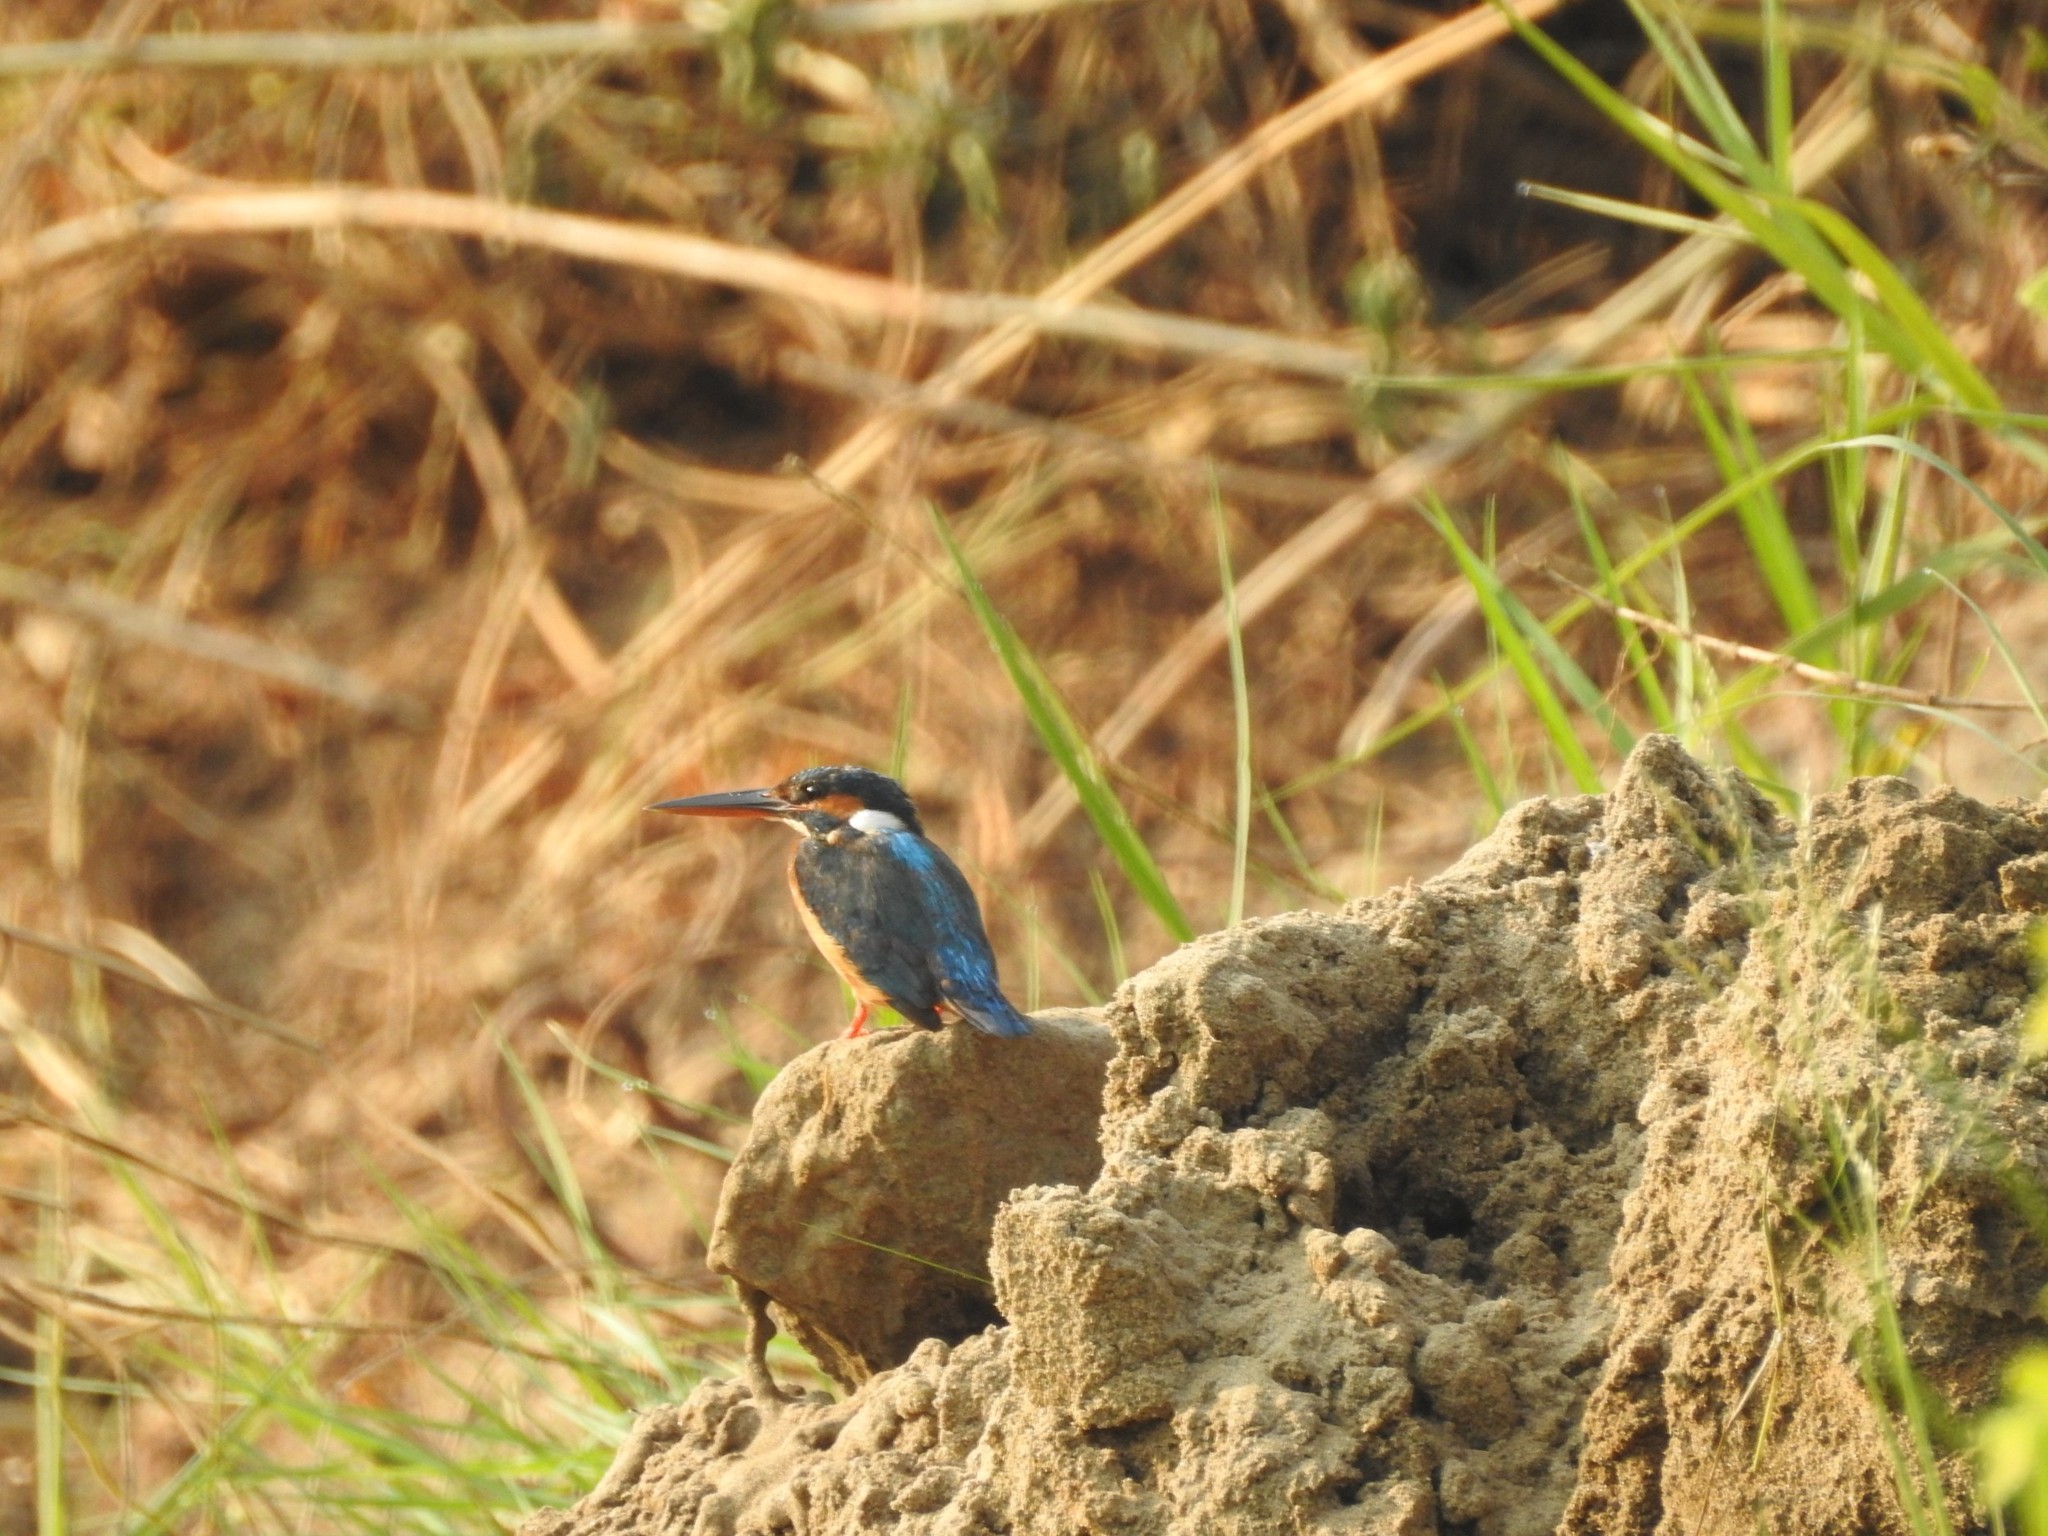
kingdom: Animalia
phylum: Chordata
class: Aves
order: Coraciiformes
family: Alcedinidae
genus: Alcedo
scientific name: Alcedo atthis
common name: Common kingfisher
